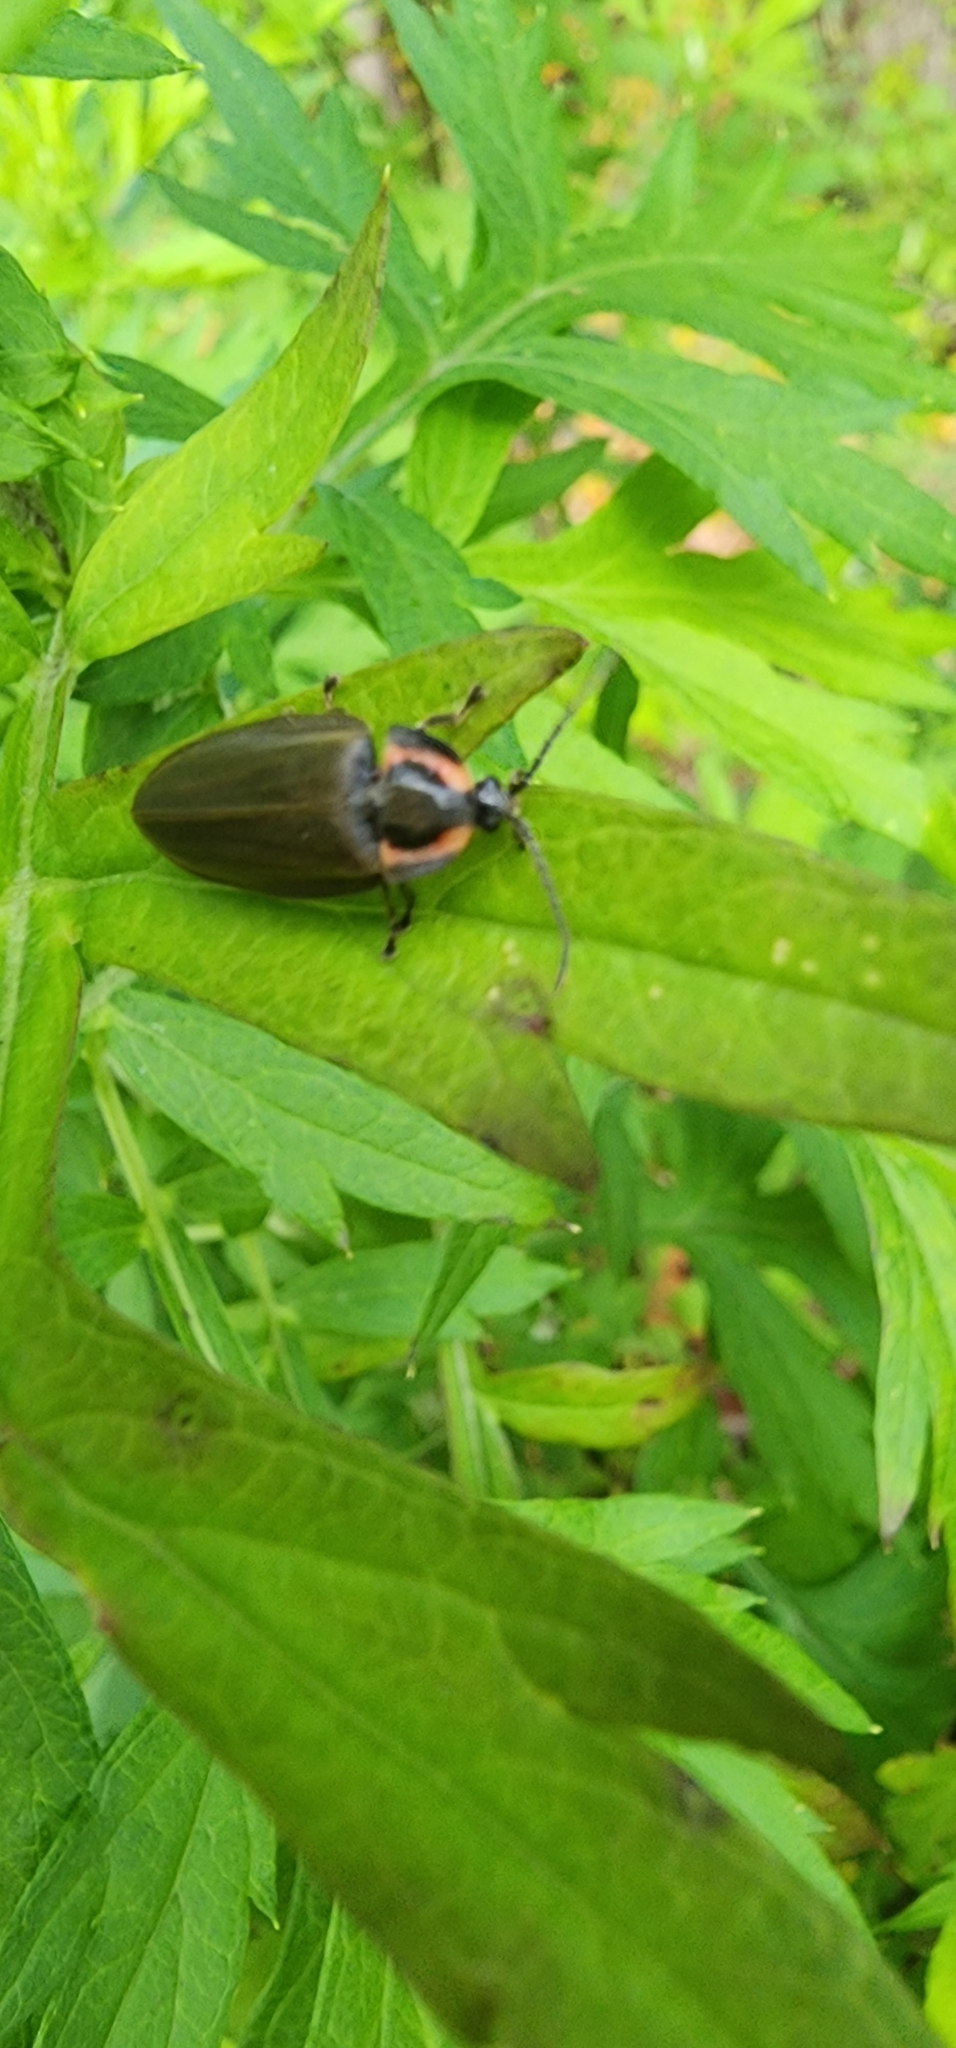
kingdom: Animalia
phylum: Arthropoda
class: Insecta
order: Coleoptera
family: Lampyridae
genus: Photinus
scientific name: Photinus corrusca
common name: Winter firefly
